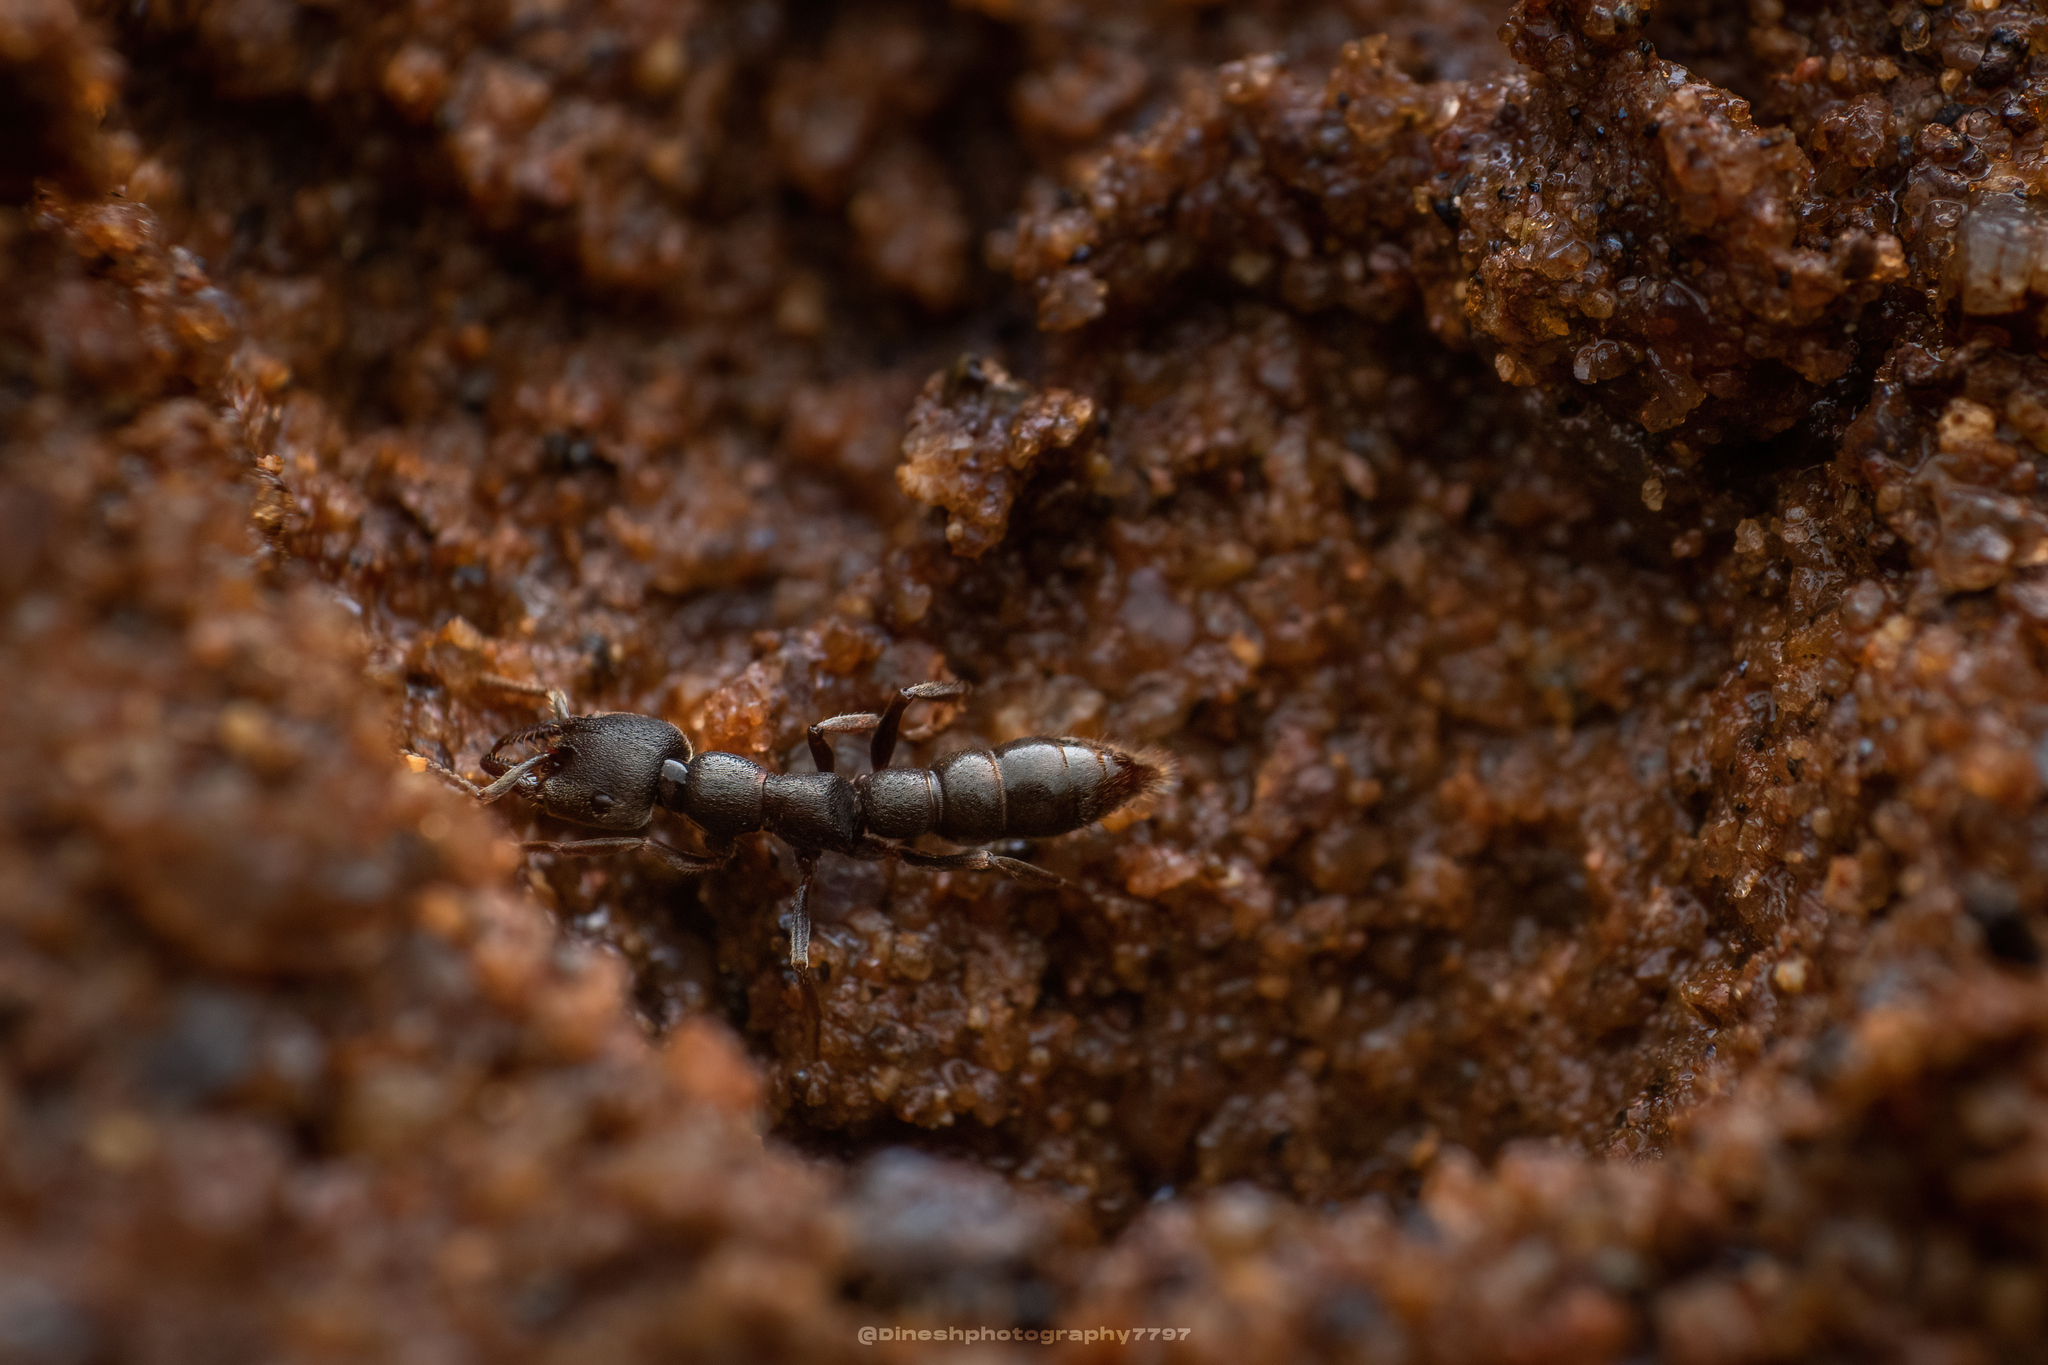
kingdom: Animalia
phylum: Arthropoda
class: Insecta
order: Hymenoptera
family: Formicidae
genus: Stigmatomma
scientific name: Stigmatomma
